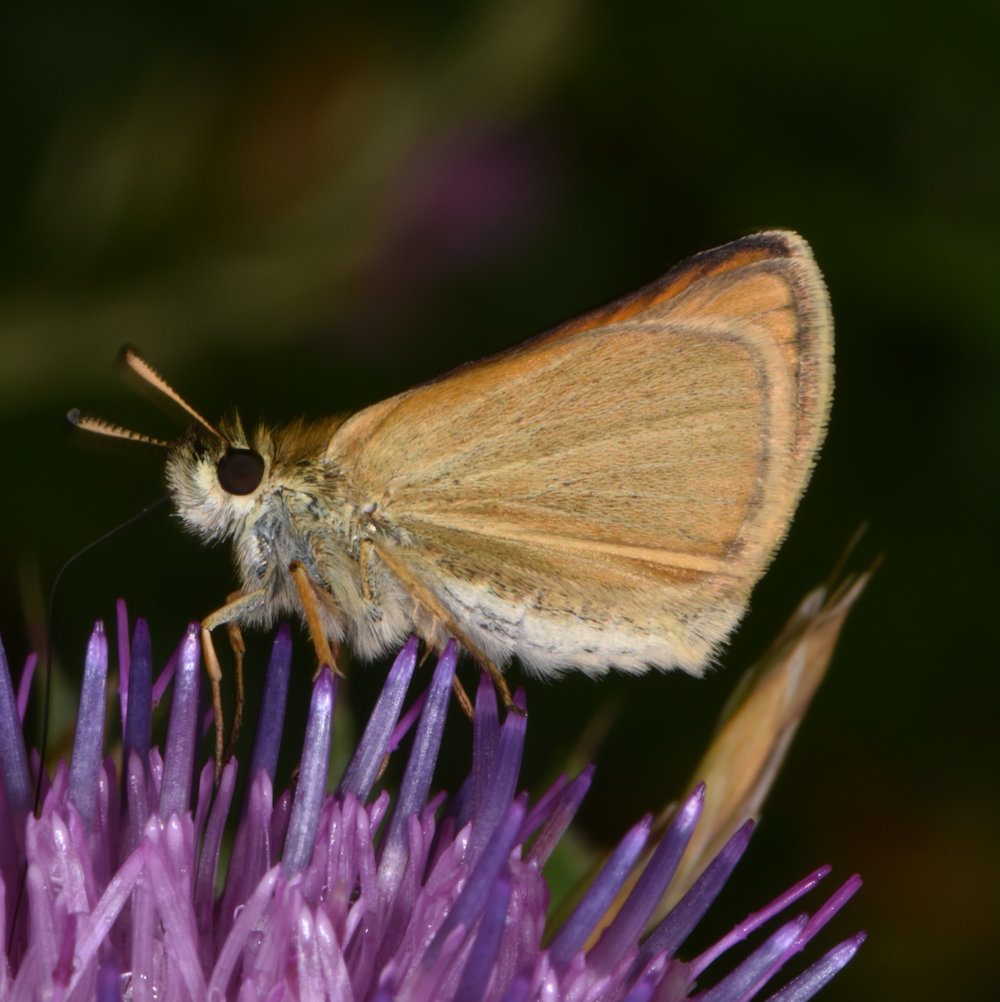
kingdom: Animalia
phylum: Arthropoda
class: Insecta
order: Lepidoptera
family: Hesperiidae
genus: Thymelicus
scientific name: Thymelicus lineola
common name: Essex skipper
